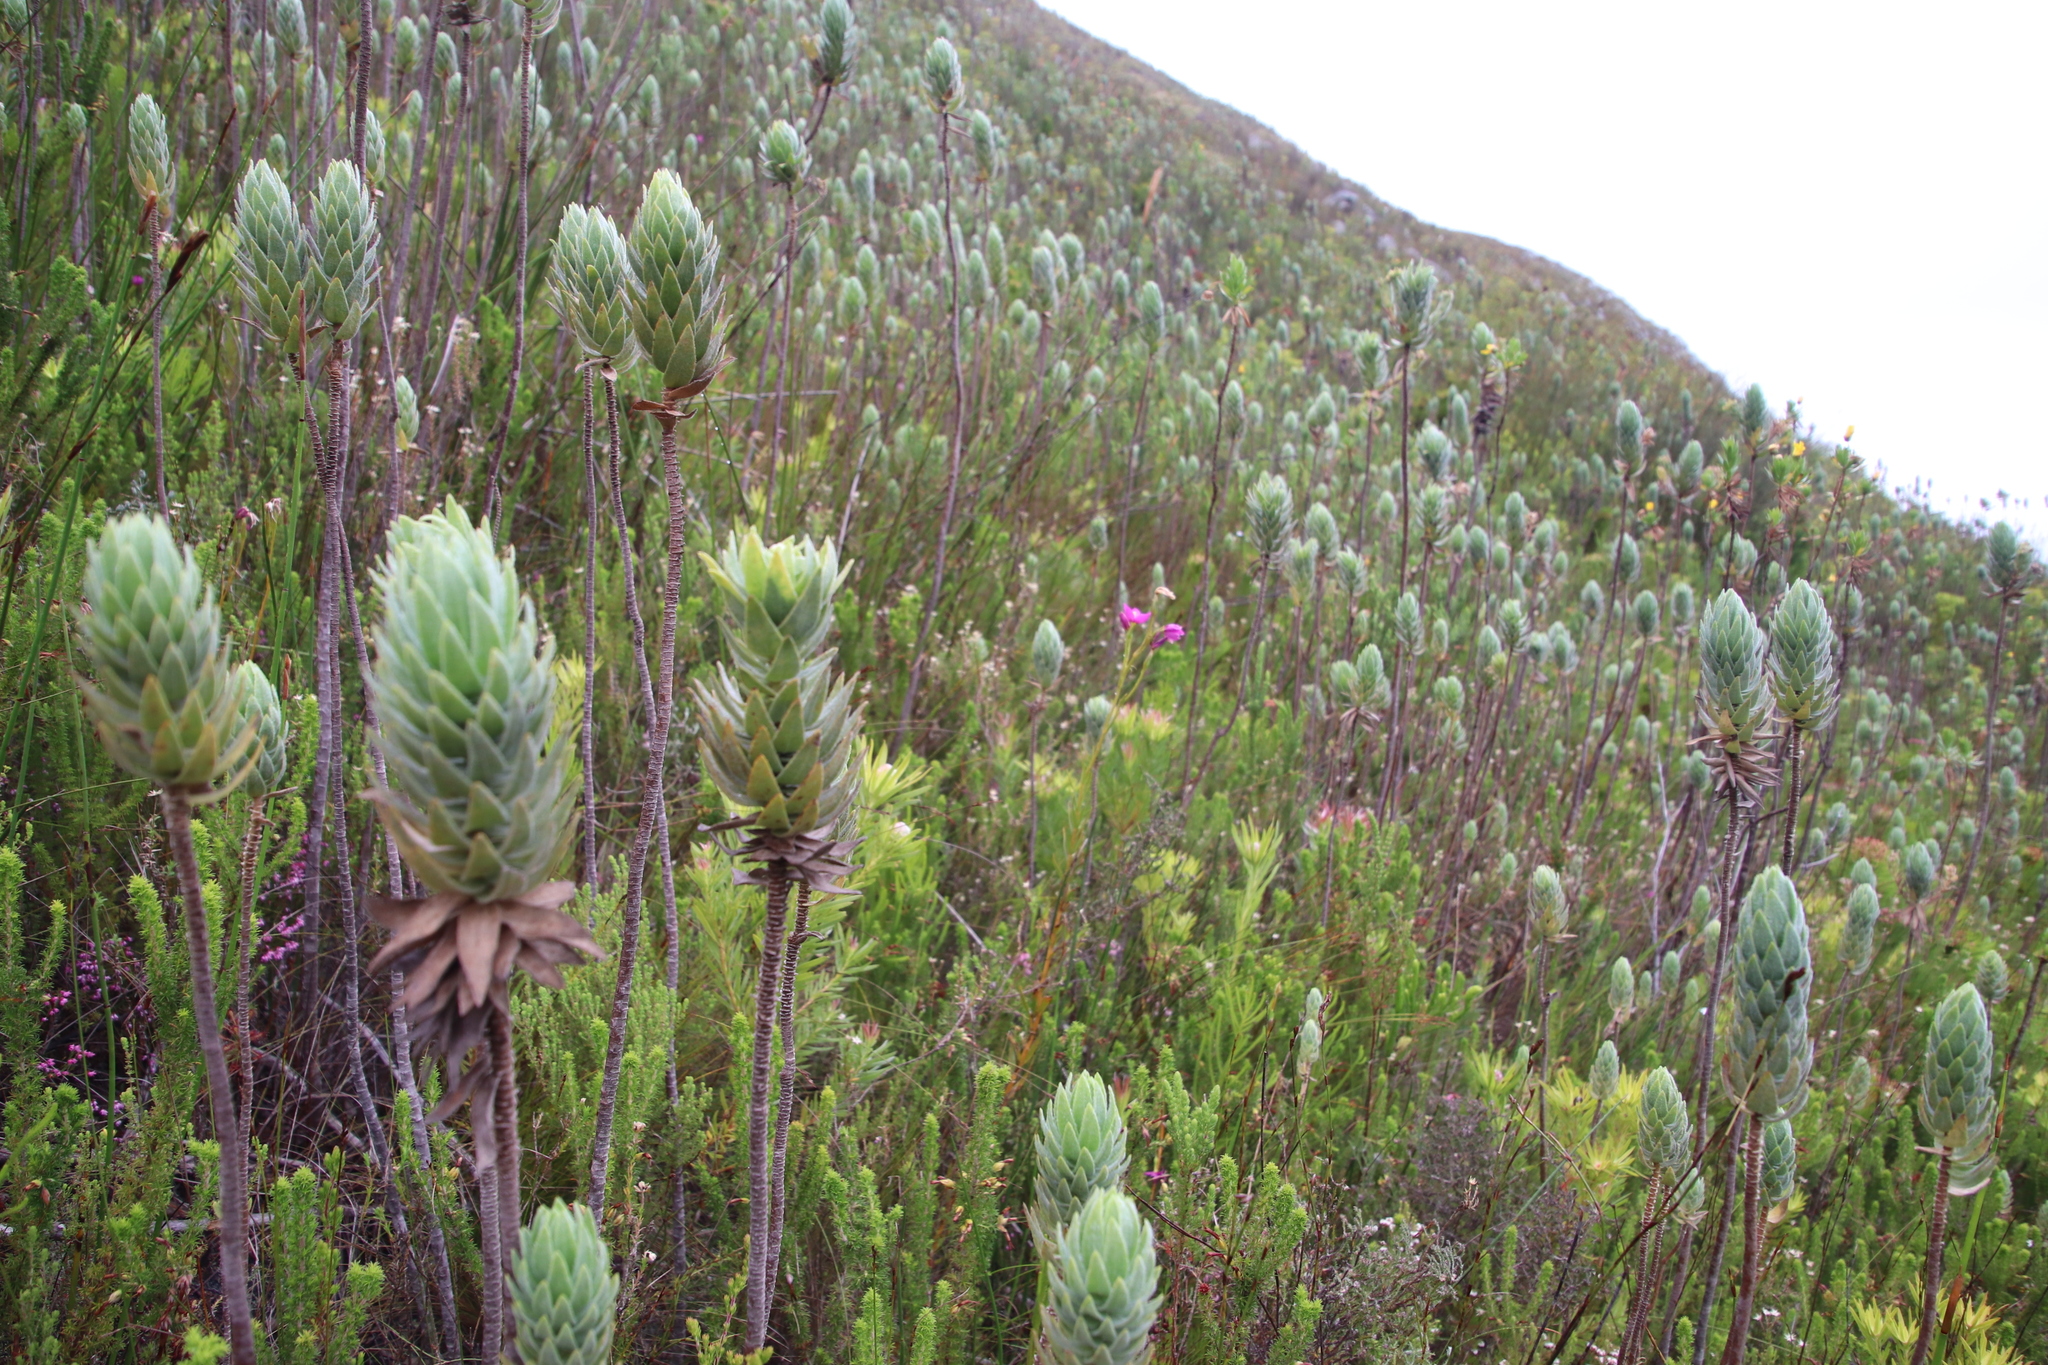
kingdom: Plantae
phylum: Tracheophyta
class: Magnoliopsida
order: Asterales
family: Asteraceae
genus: Zyrphelis
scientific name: Zyrphelis corymbosa
